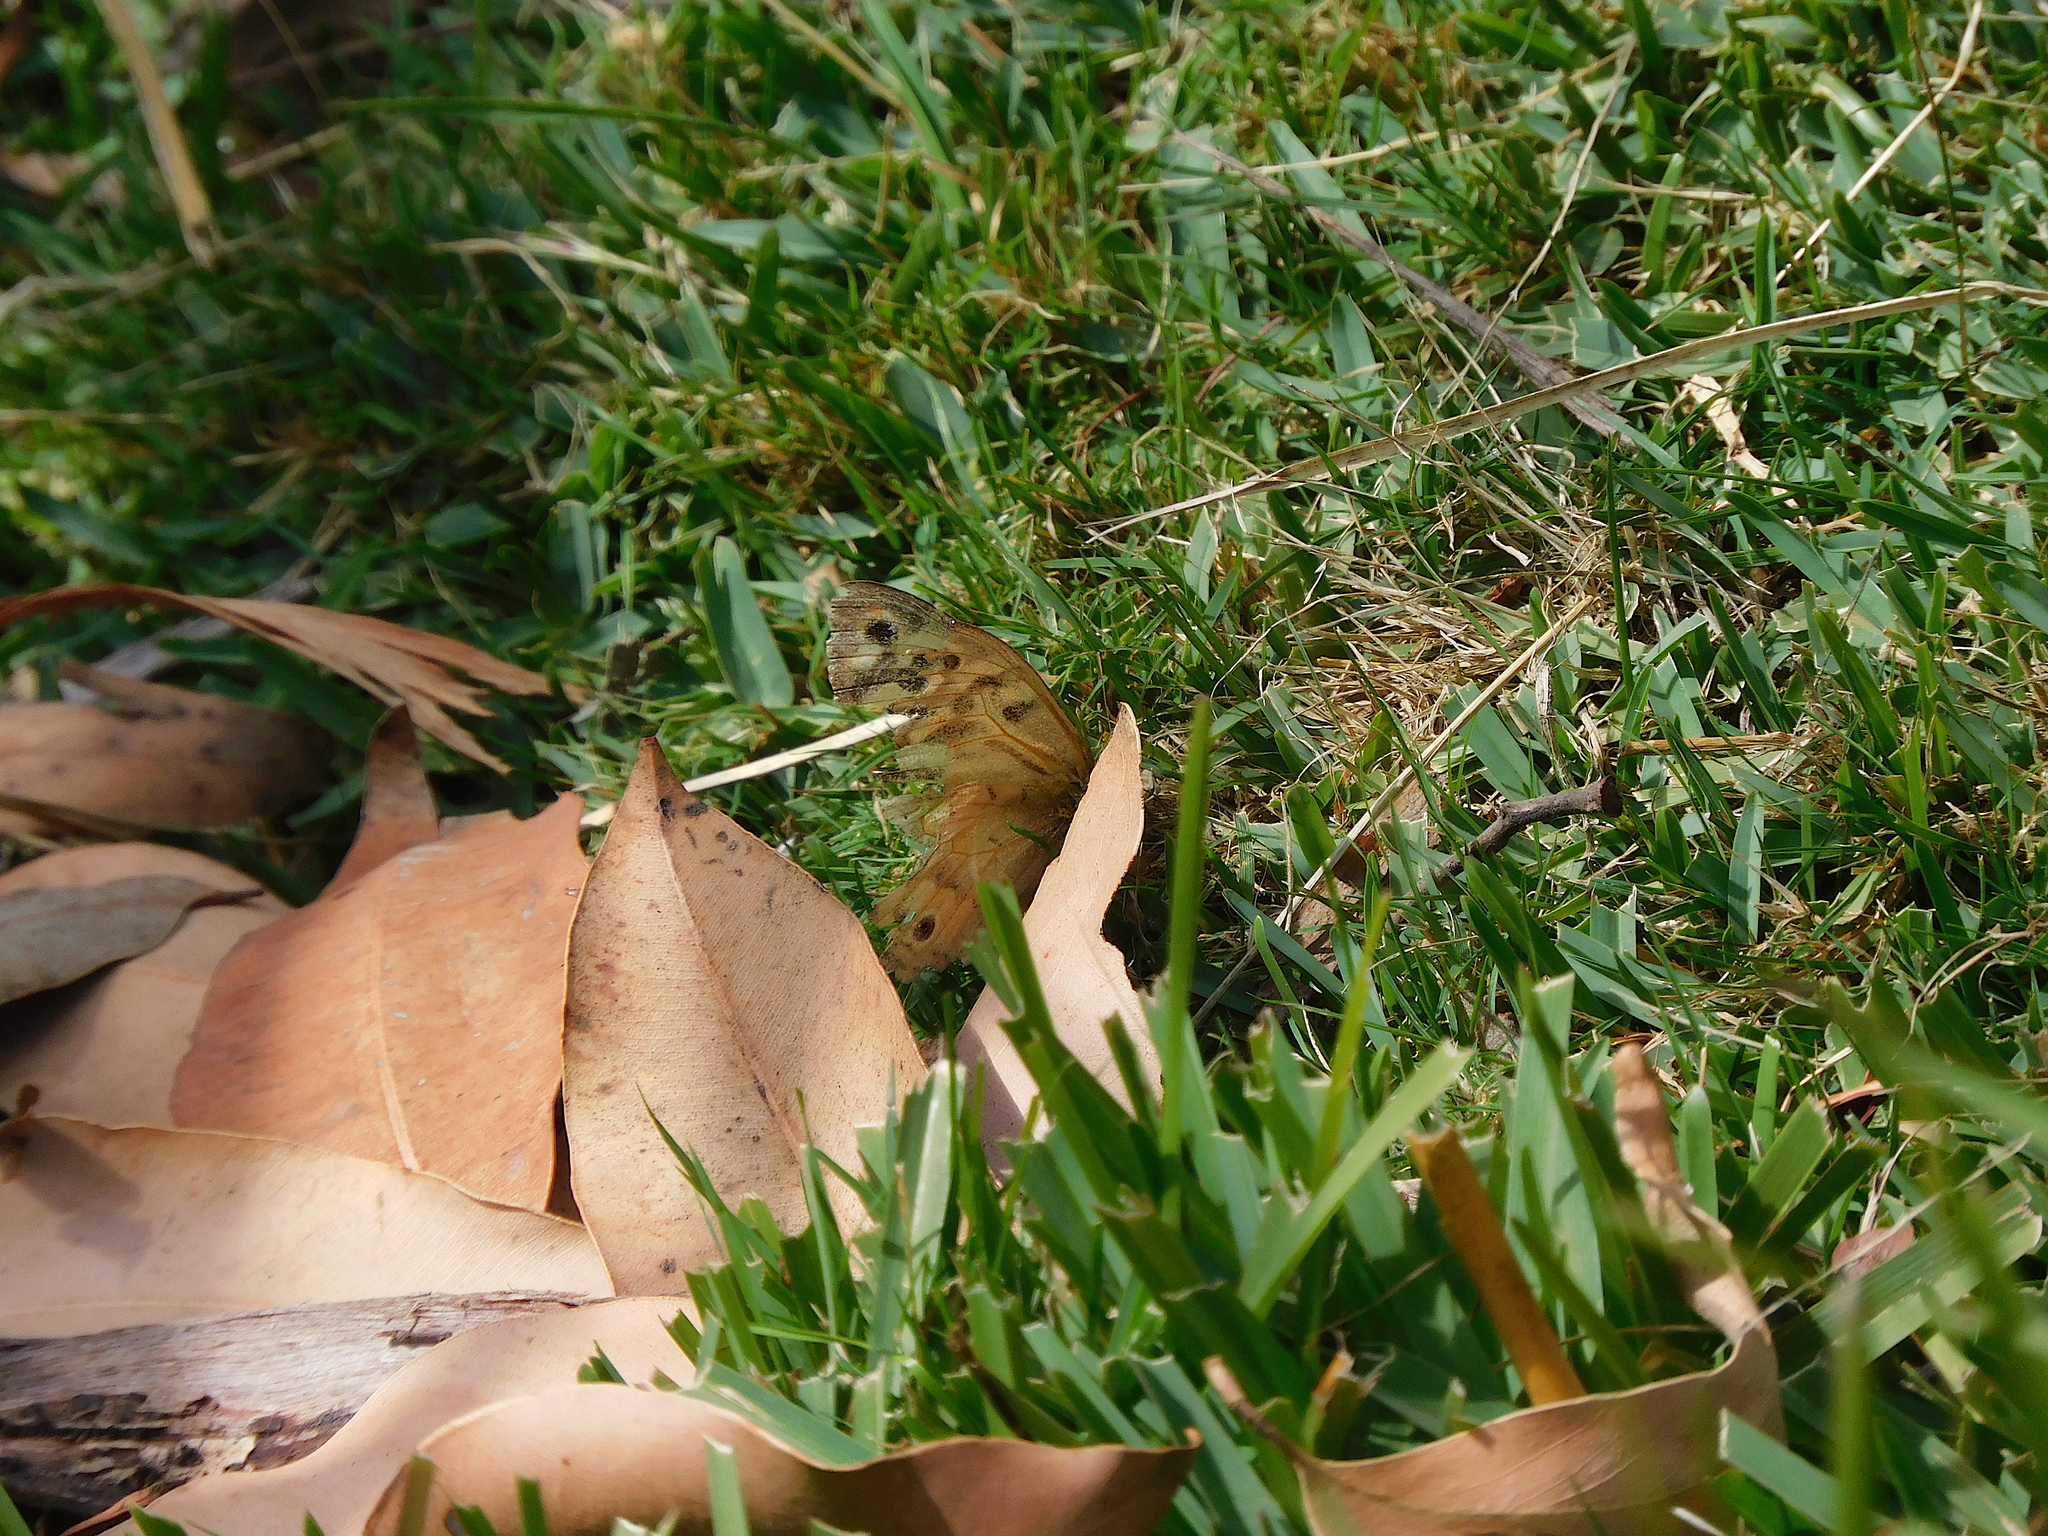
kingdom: Animalia
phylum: Arthropoda
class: Insecta
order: Lepidoptera
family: Nymphalidae
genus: Heteronympha
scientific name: Heteronympha merope
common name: Common brown
